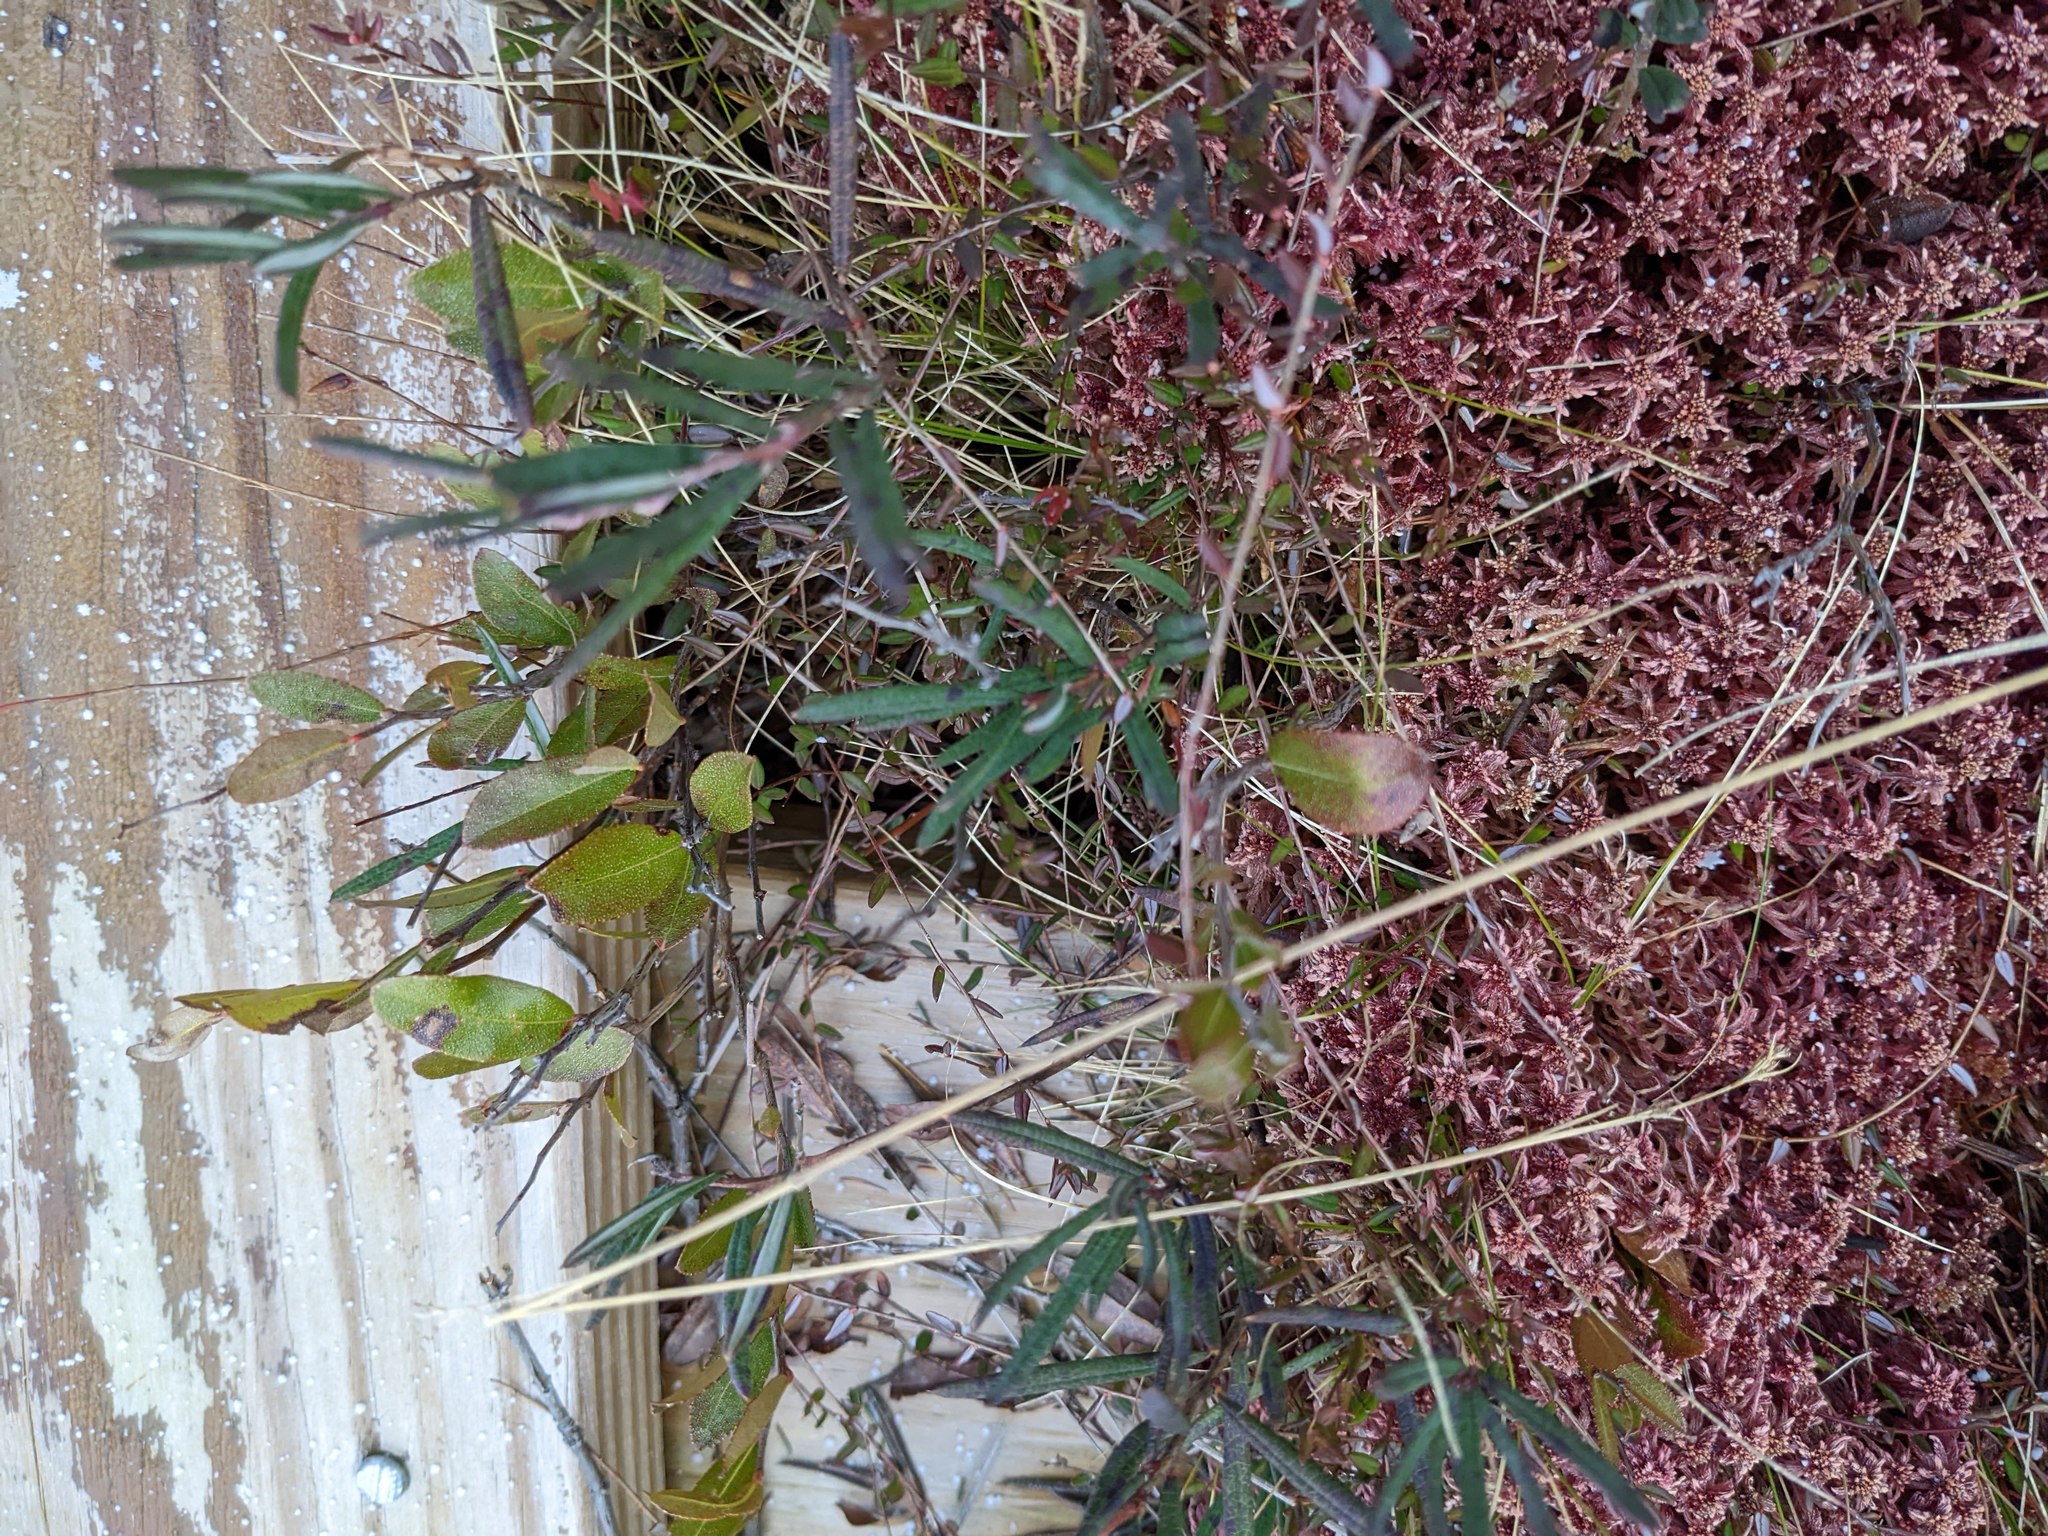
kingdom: Plantae
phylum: Tracheophyta
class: Magnoliopsida
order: Ericales
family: Ericaceae
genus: Andromeda
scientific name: Andromeda polifolia
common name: Bog-rosemary
